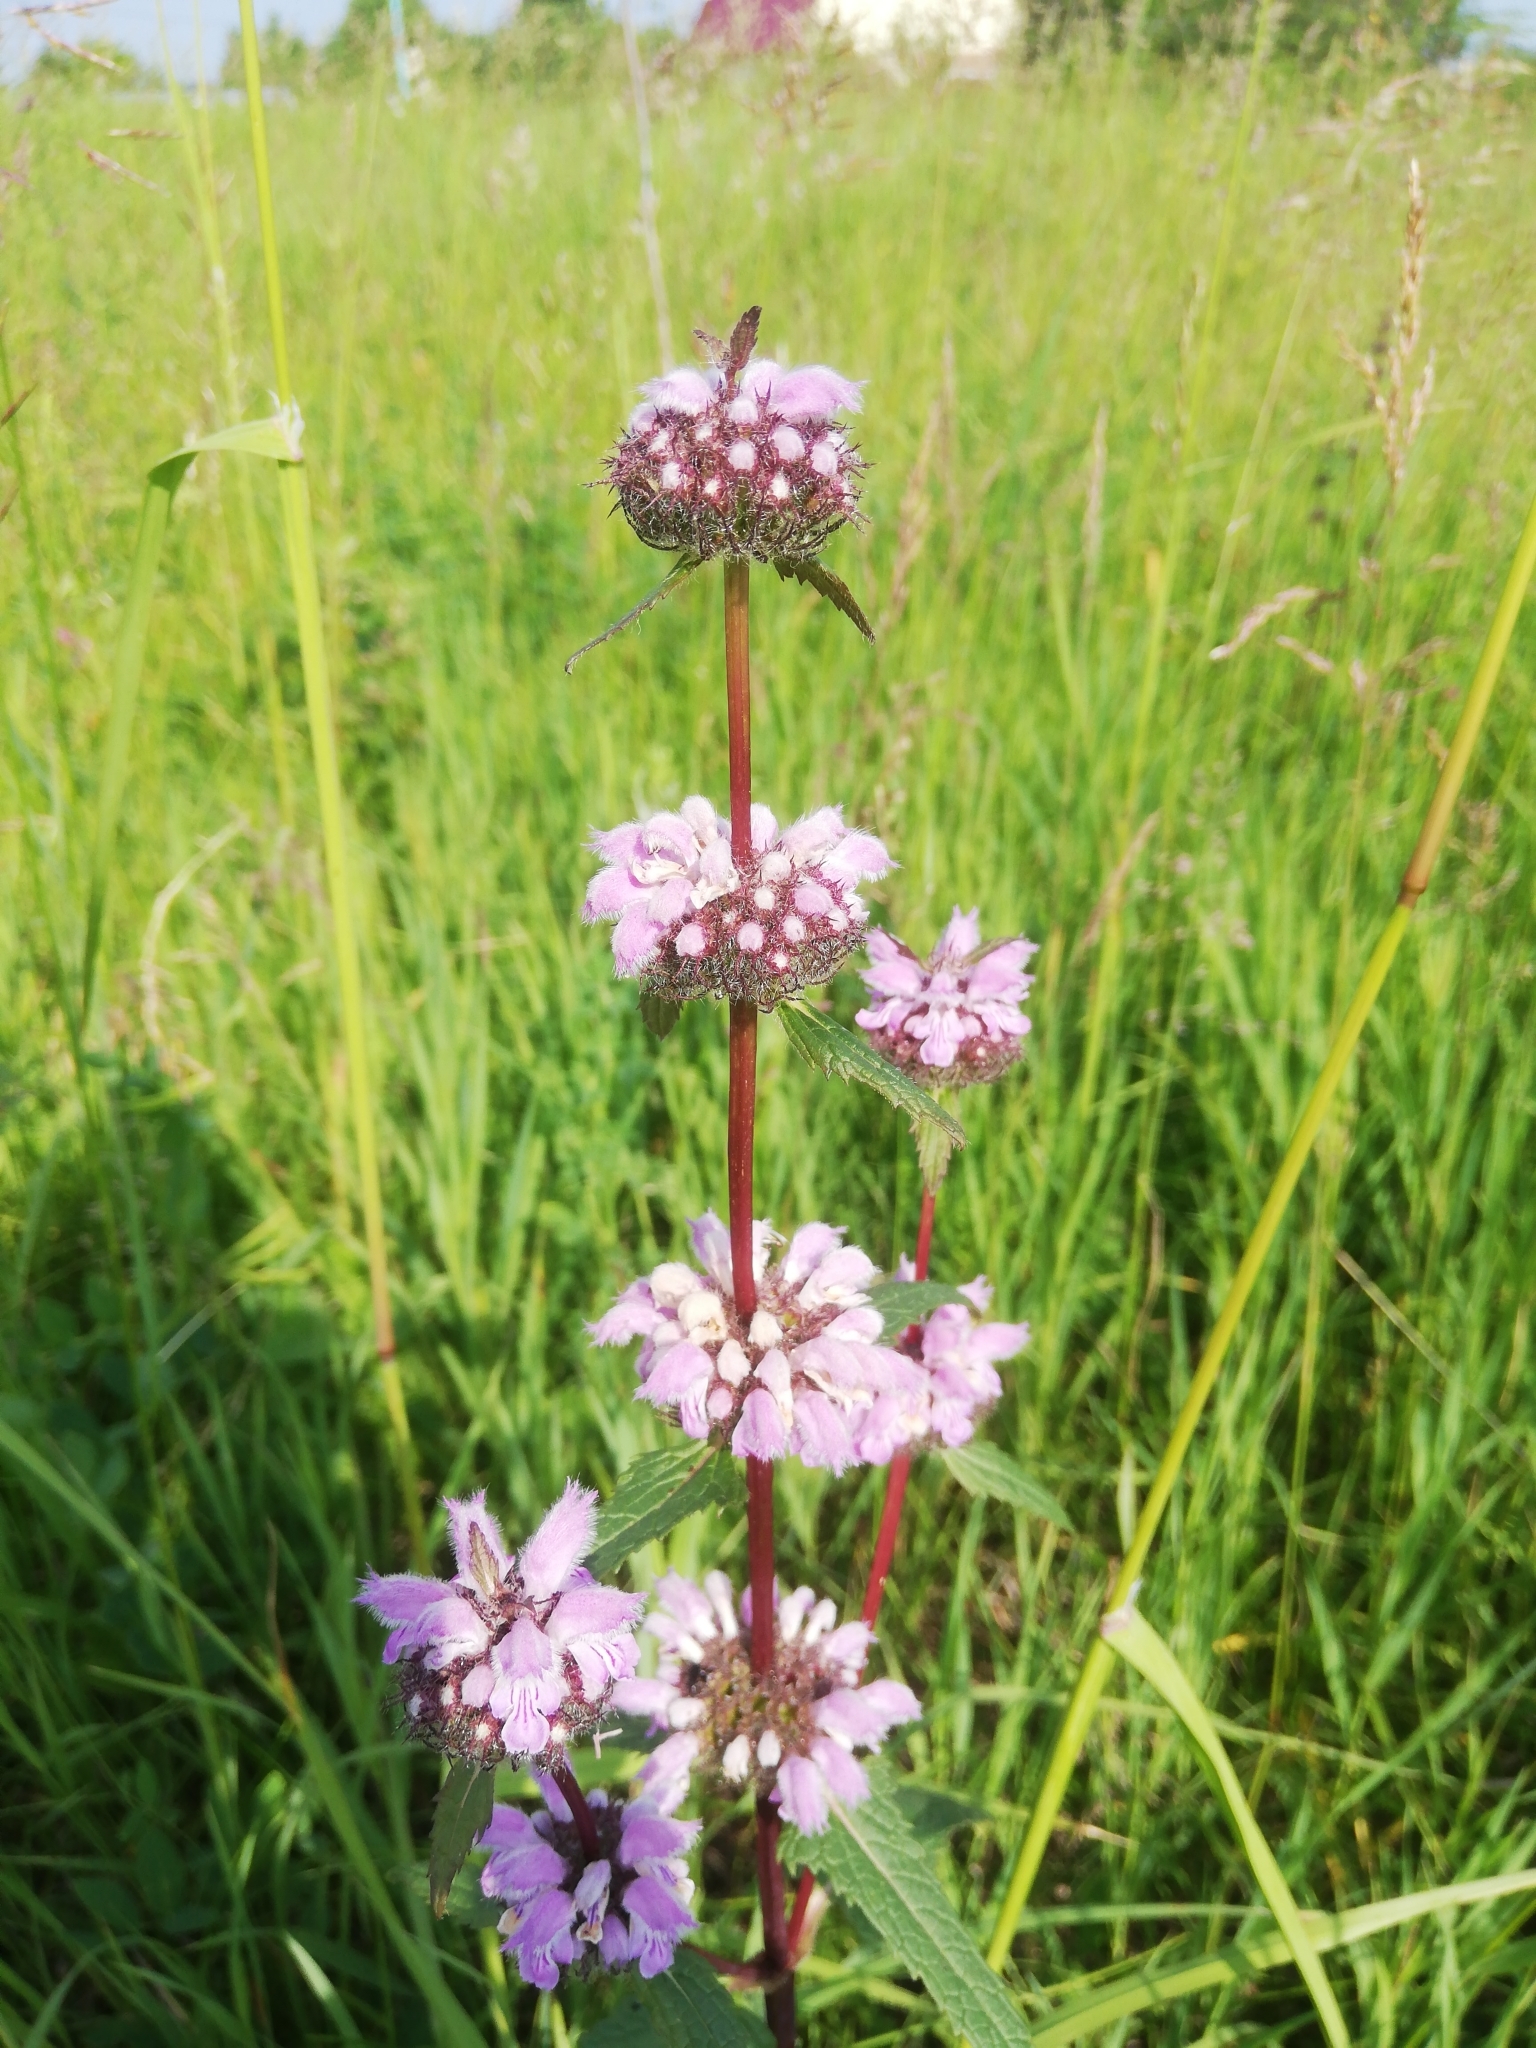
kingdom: Plantae
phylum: Tracheophyta
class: Magnoliopsida
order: Lamiales
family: Lamiaceae
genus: Phlomoides
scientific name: Phlomoides tuberosa
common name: Tuberous jerusalem sage
